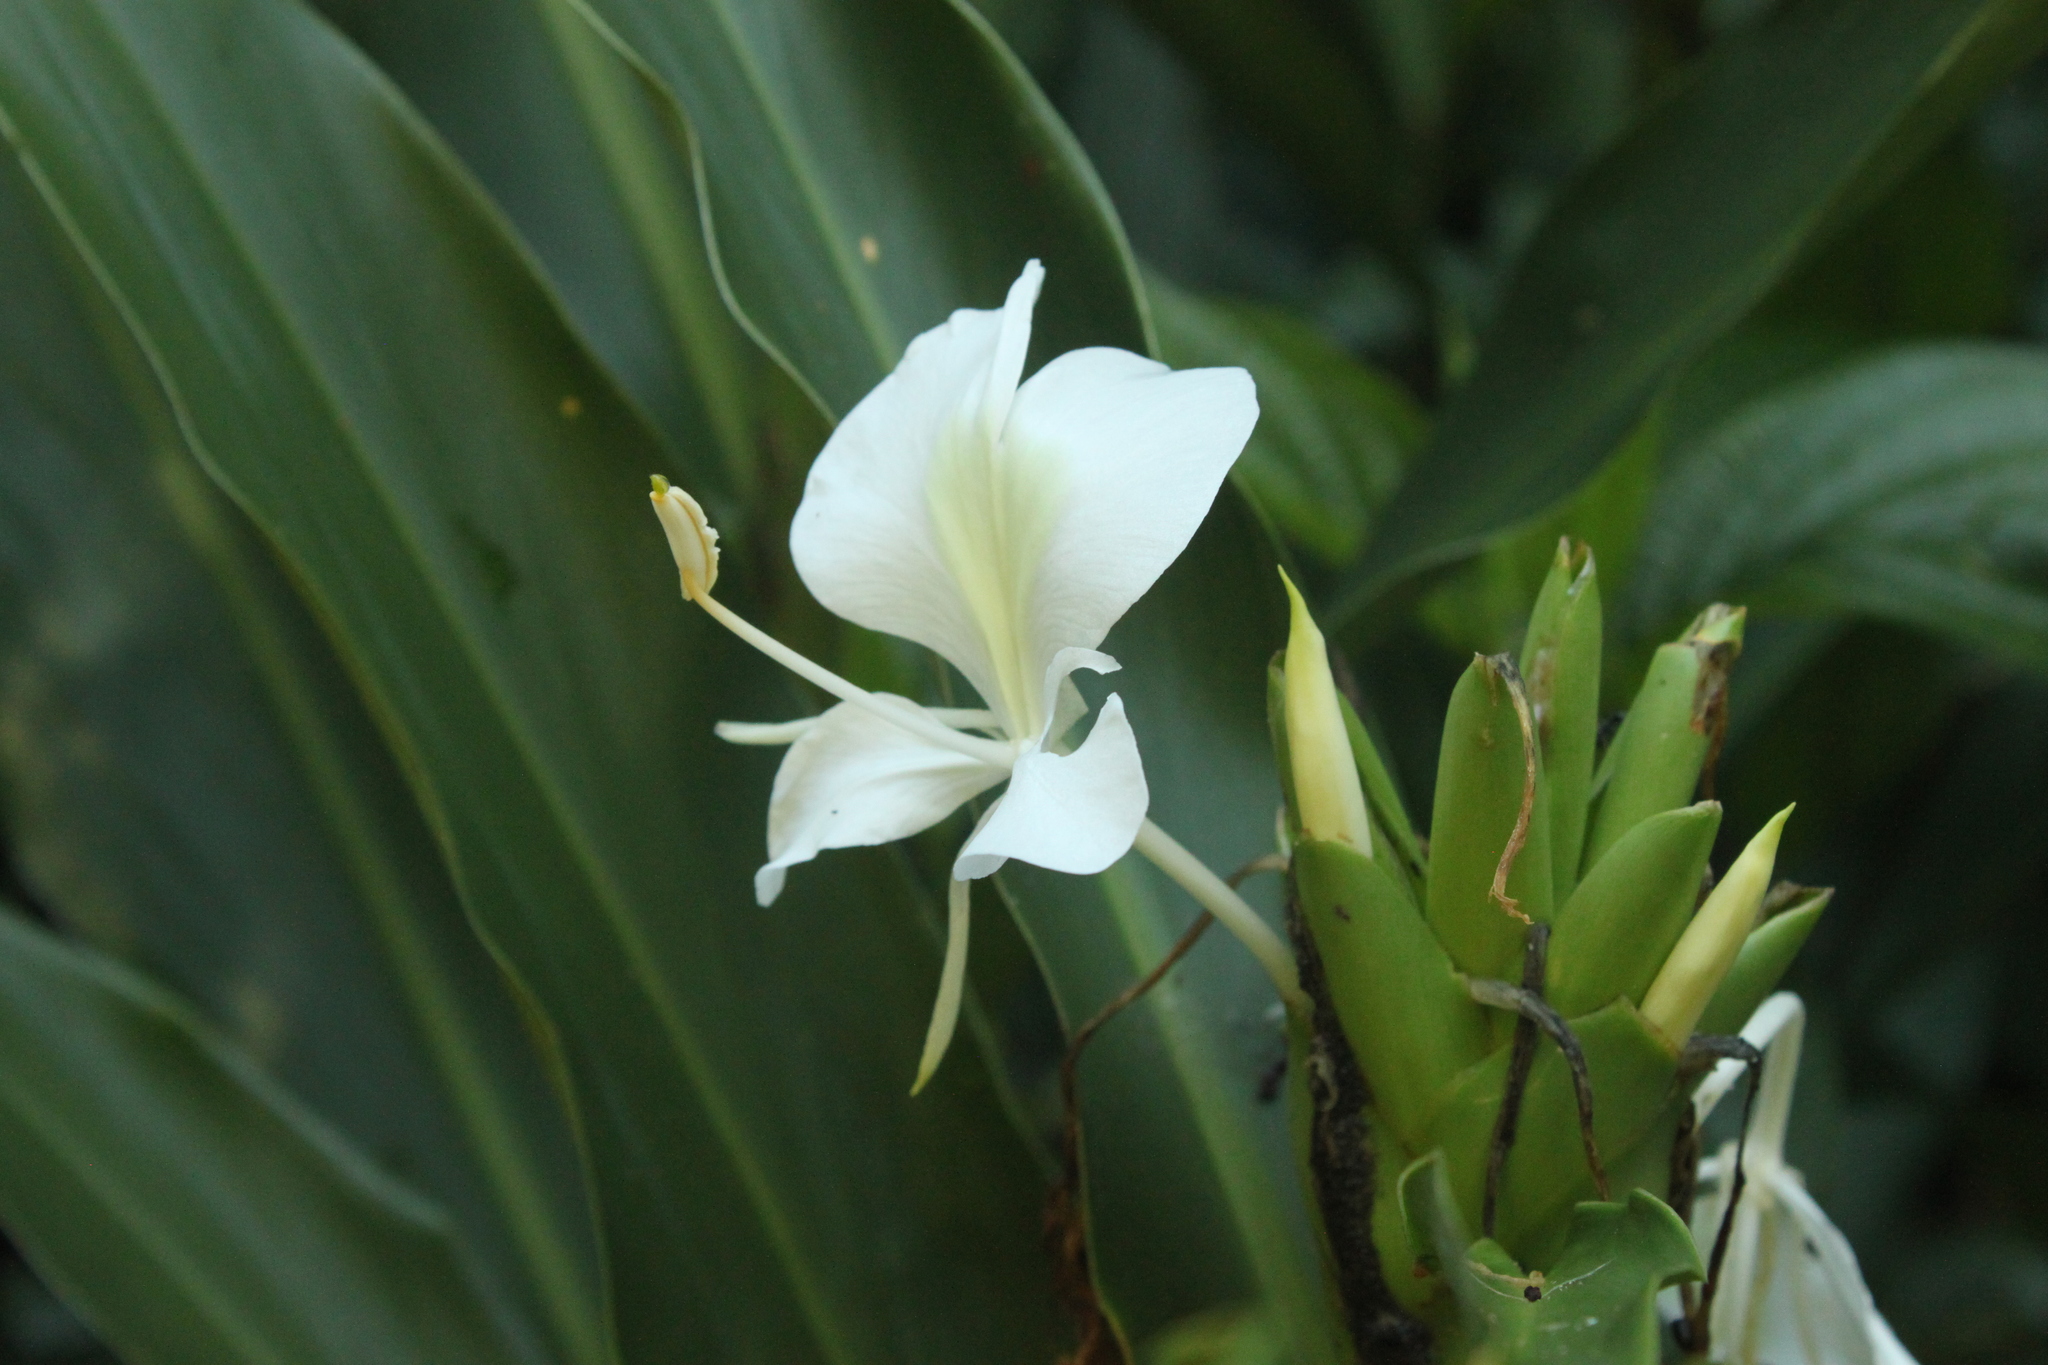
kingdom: Plantae
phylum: Tracheophyta
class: Liliopsida
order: Zingiberales
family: Zingiberaceae
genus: Hedychium
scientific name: Hedychium coronarium
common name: White garland-lily
